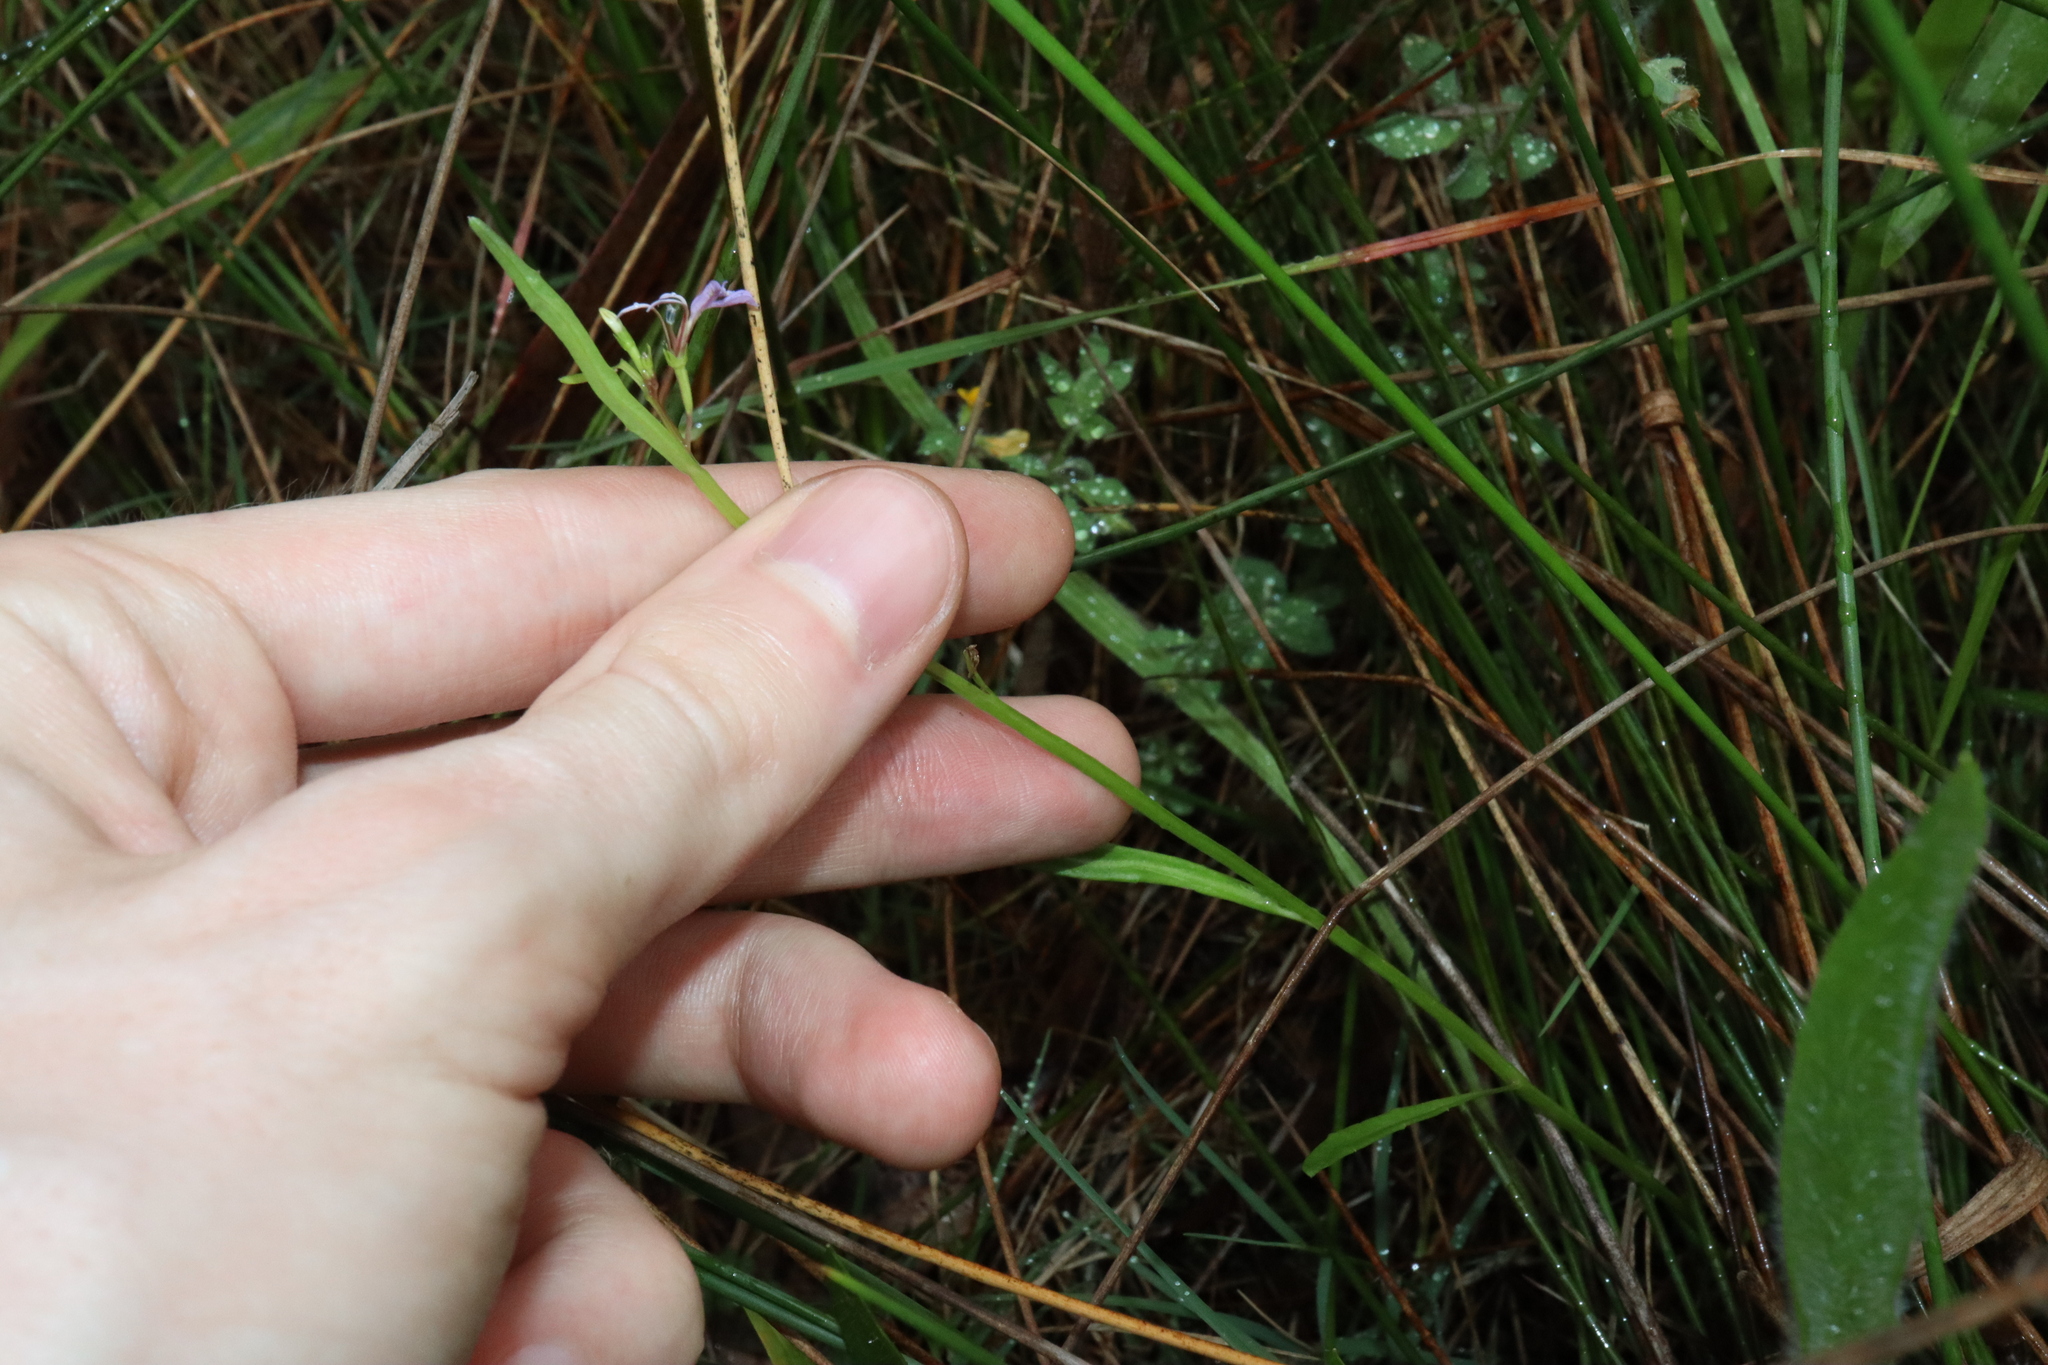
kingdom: Plantae
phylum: Tracheophyta
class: Magnoliopsida
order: Asterales
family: Campanulaceae
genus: Lobelia
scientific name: Lobelia anceps
